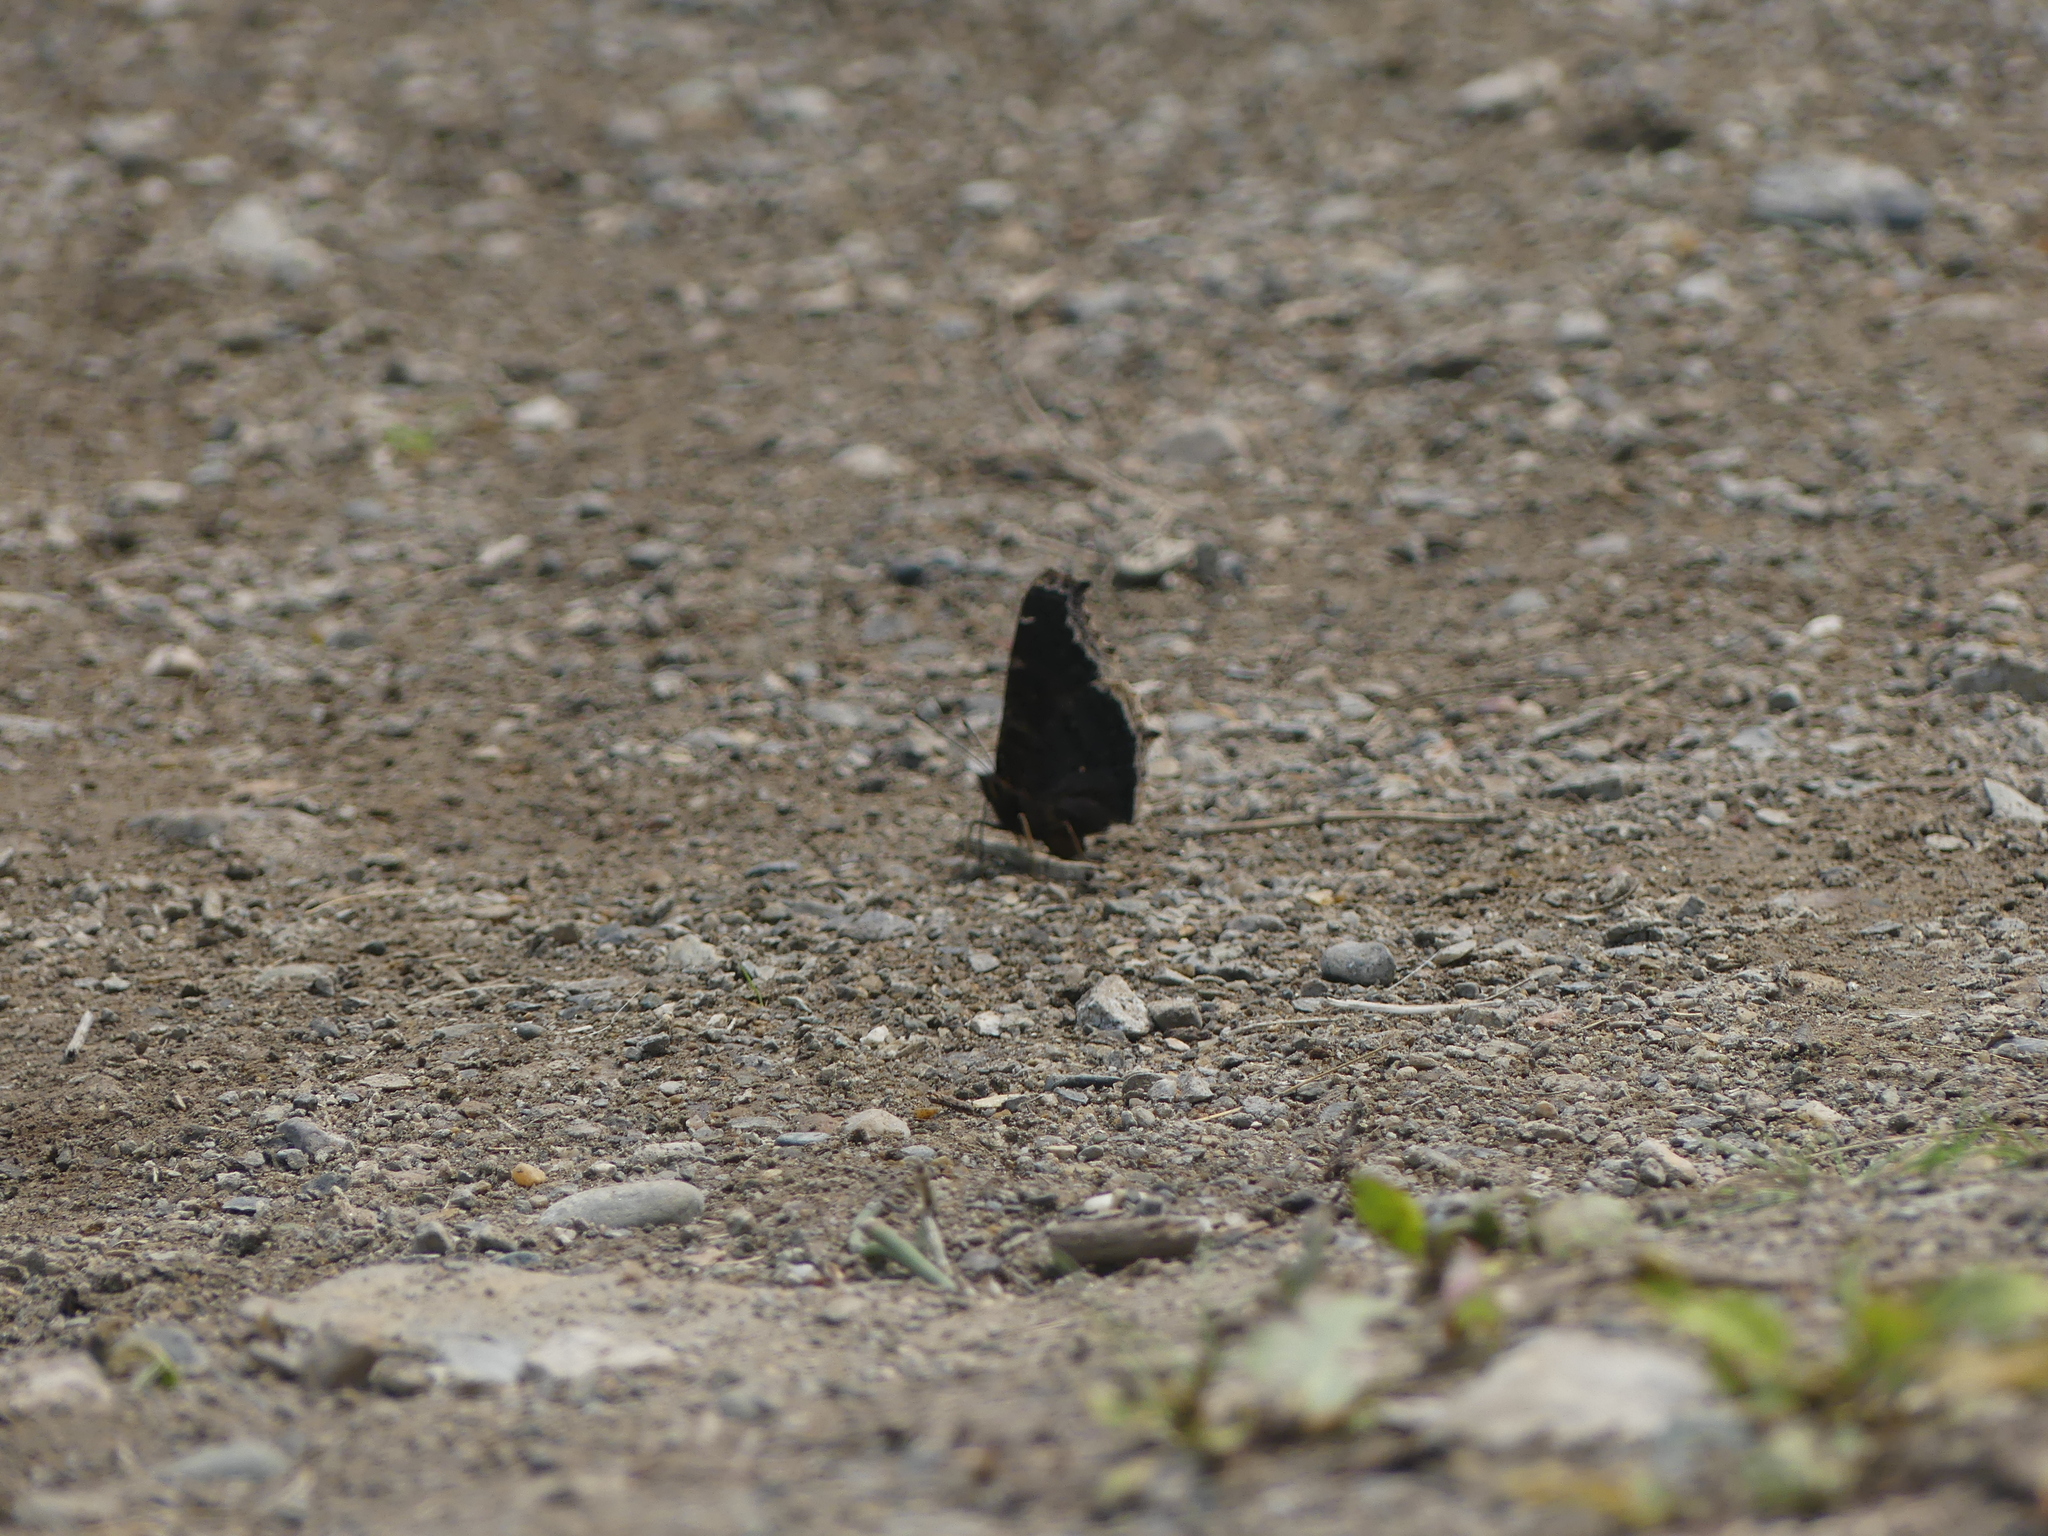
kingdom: Animalia
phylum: Arthropoda
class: Insecta
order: Lepidoptera
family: Nymphalidae
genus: Nymphalis
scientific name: Nymphalis antiopa
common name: Camberwell beauty
